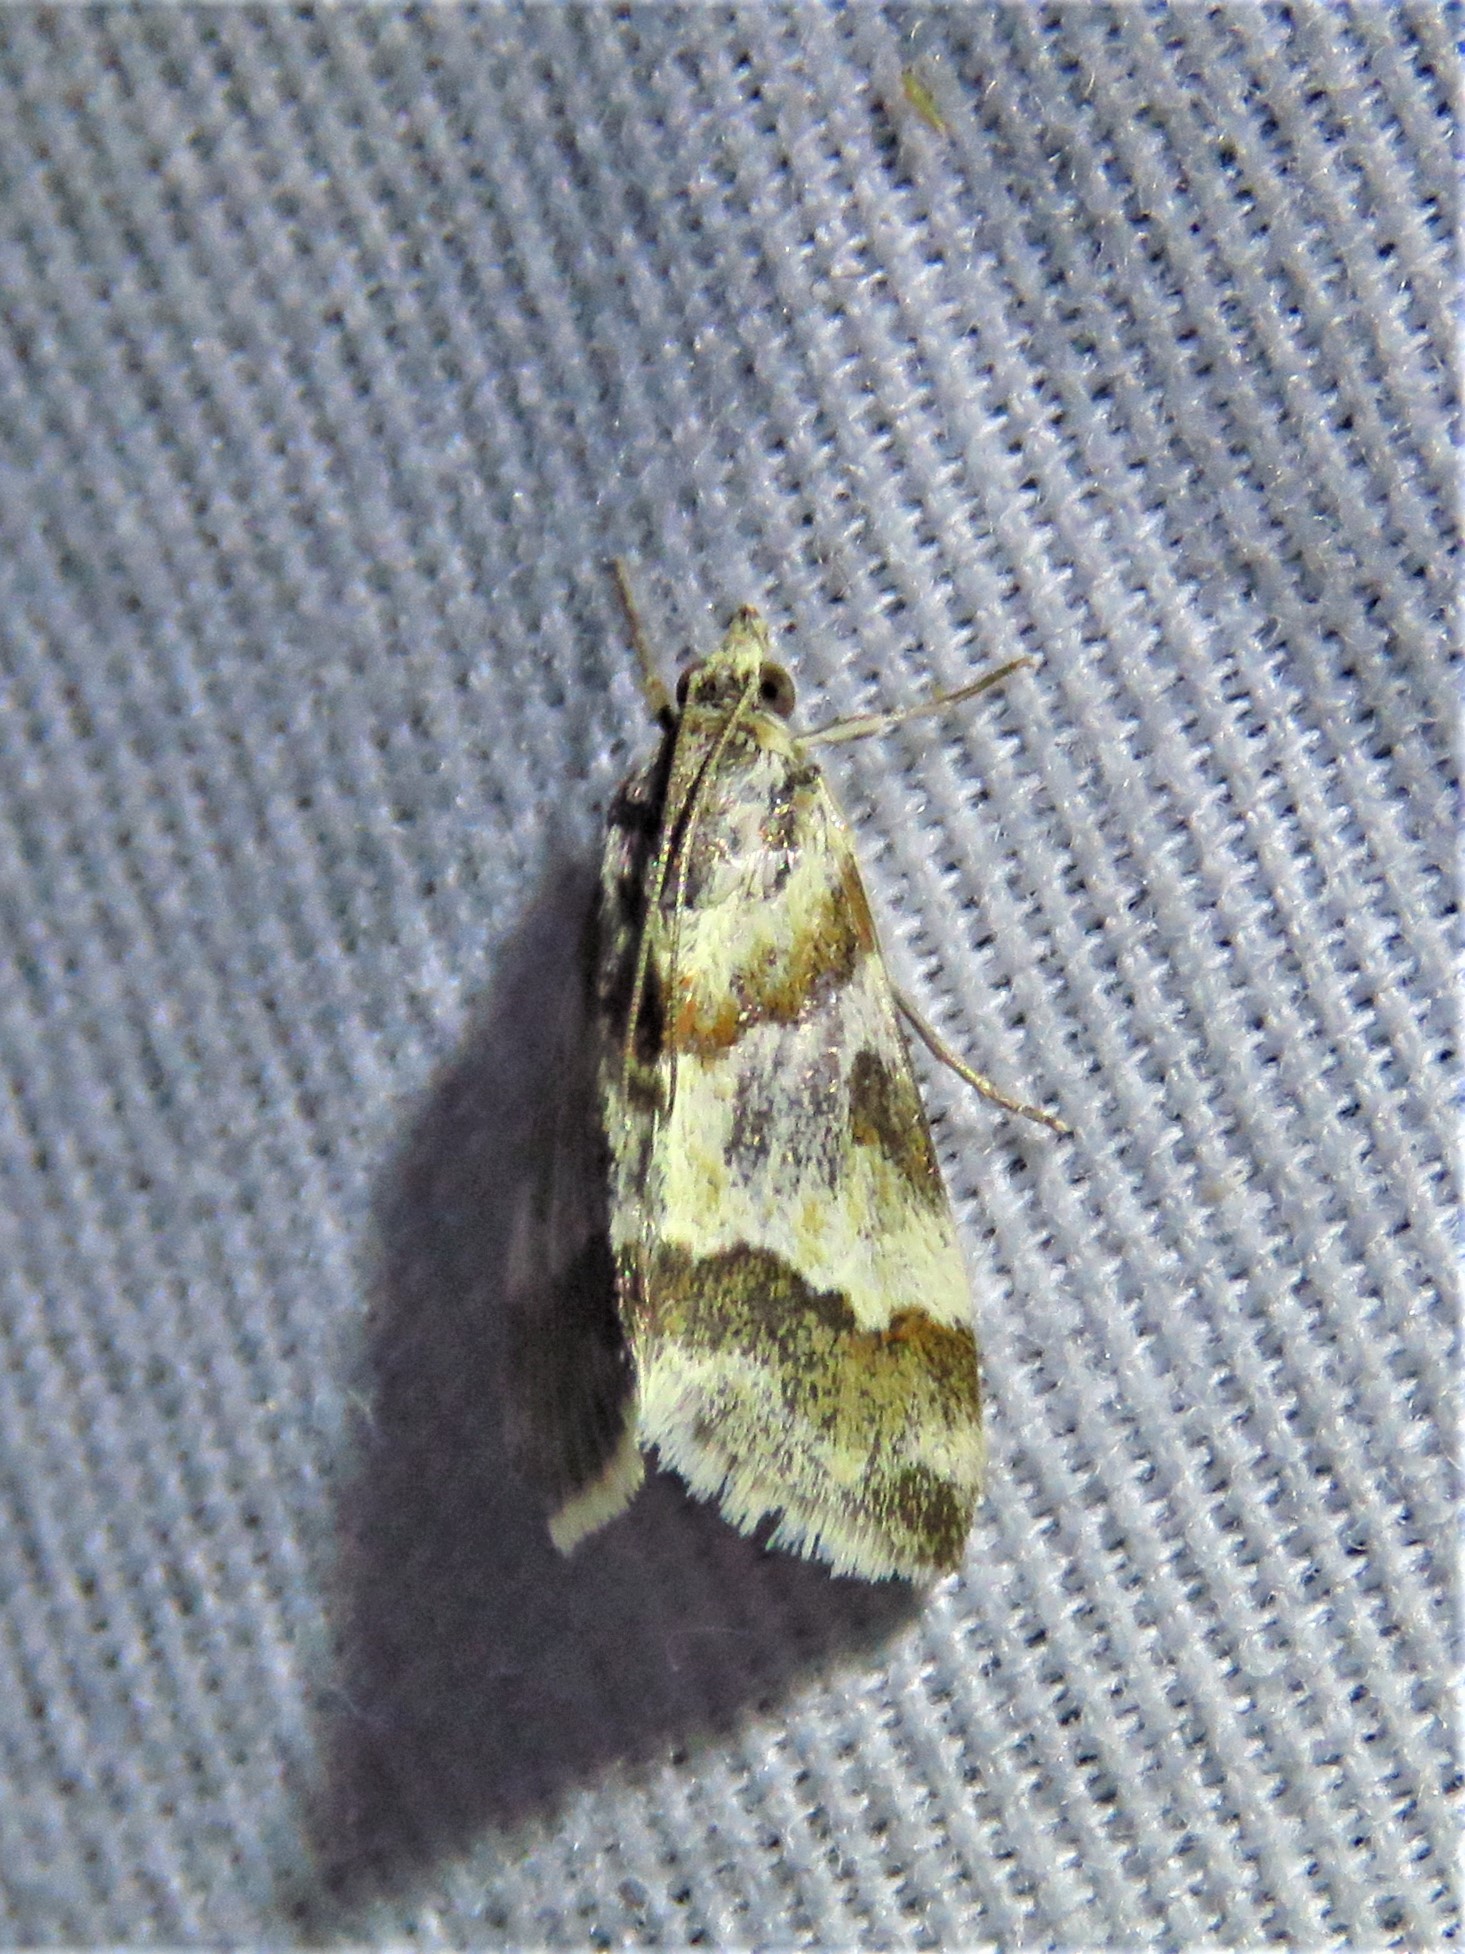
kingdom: Animalia
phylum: Arthropoda
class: Insecta
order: Lepidoptera
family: Crambidae
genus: Noctuelia
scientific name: Noctuelia Mimoschinia rufofascialis
